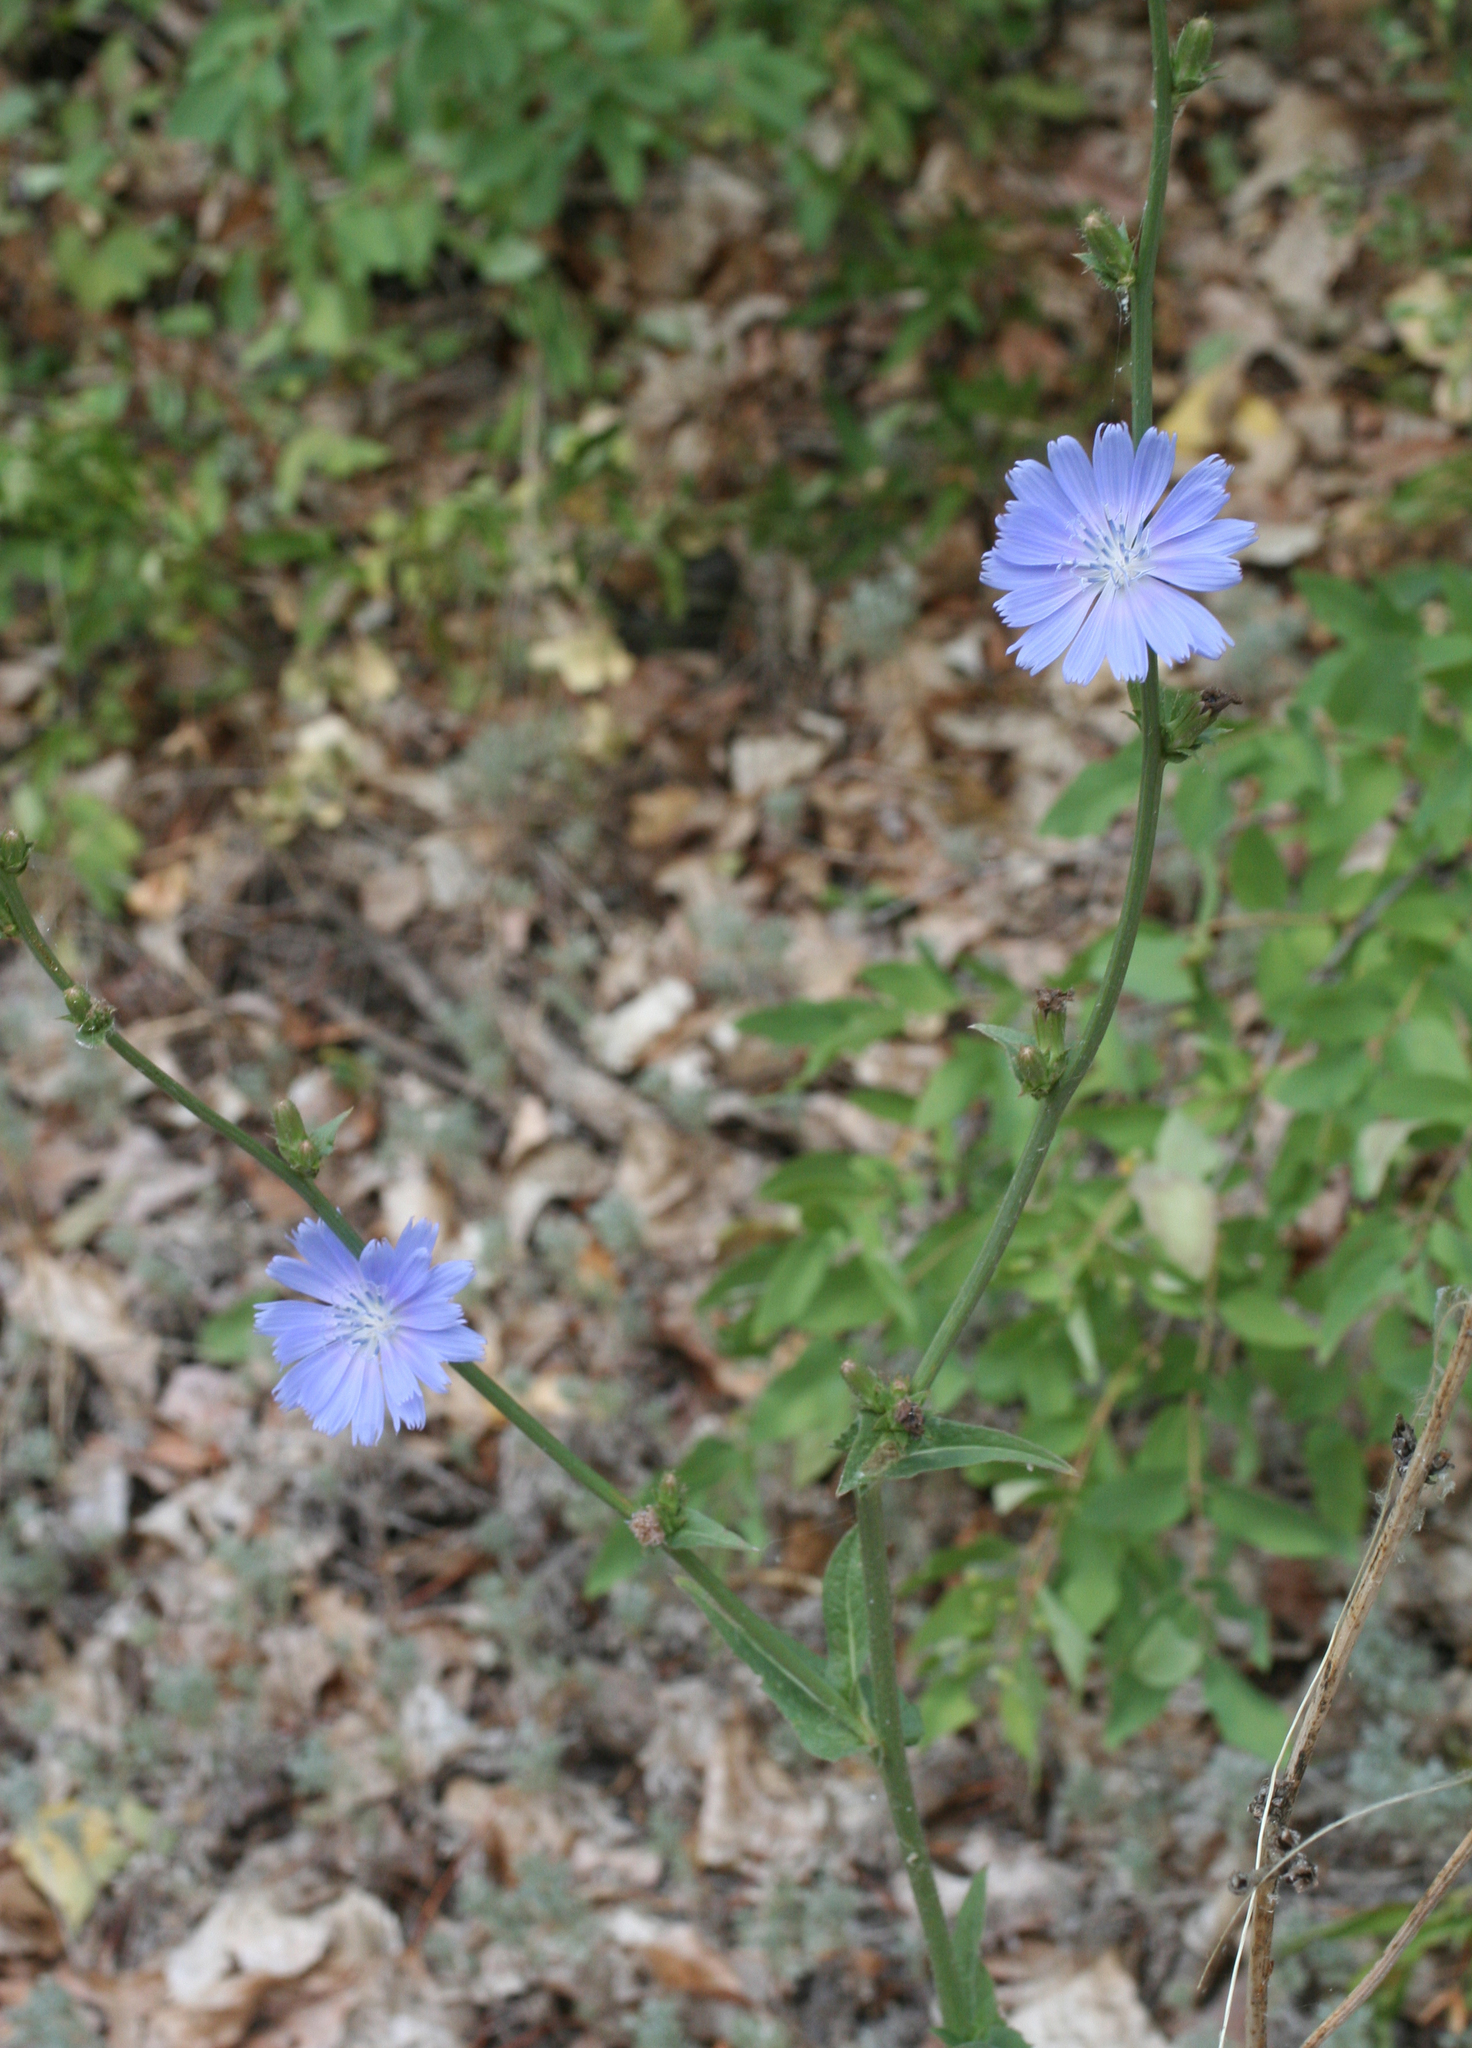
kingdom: Plantae
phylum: Tracheophyta
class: Magnoliopsida
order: Asterales
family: Asteraceae
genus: Cichorium
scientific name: Cichorium intybus
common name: Chicory
